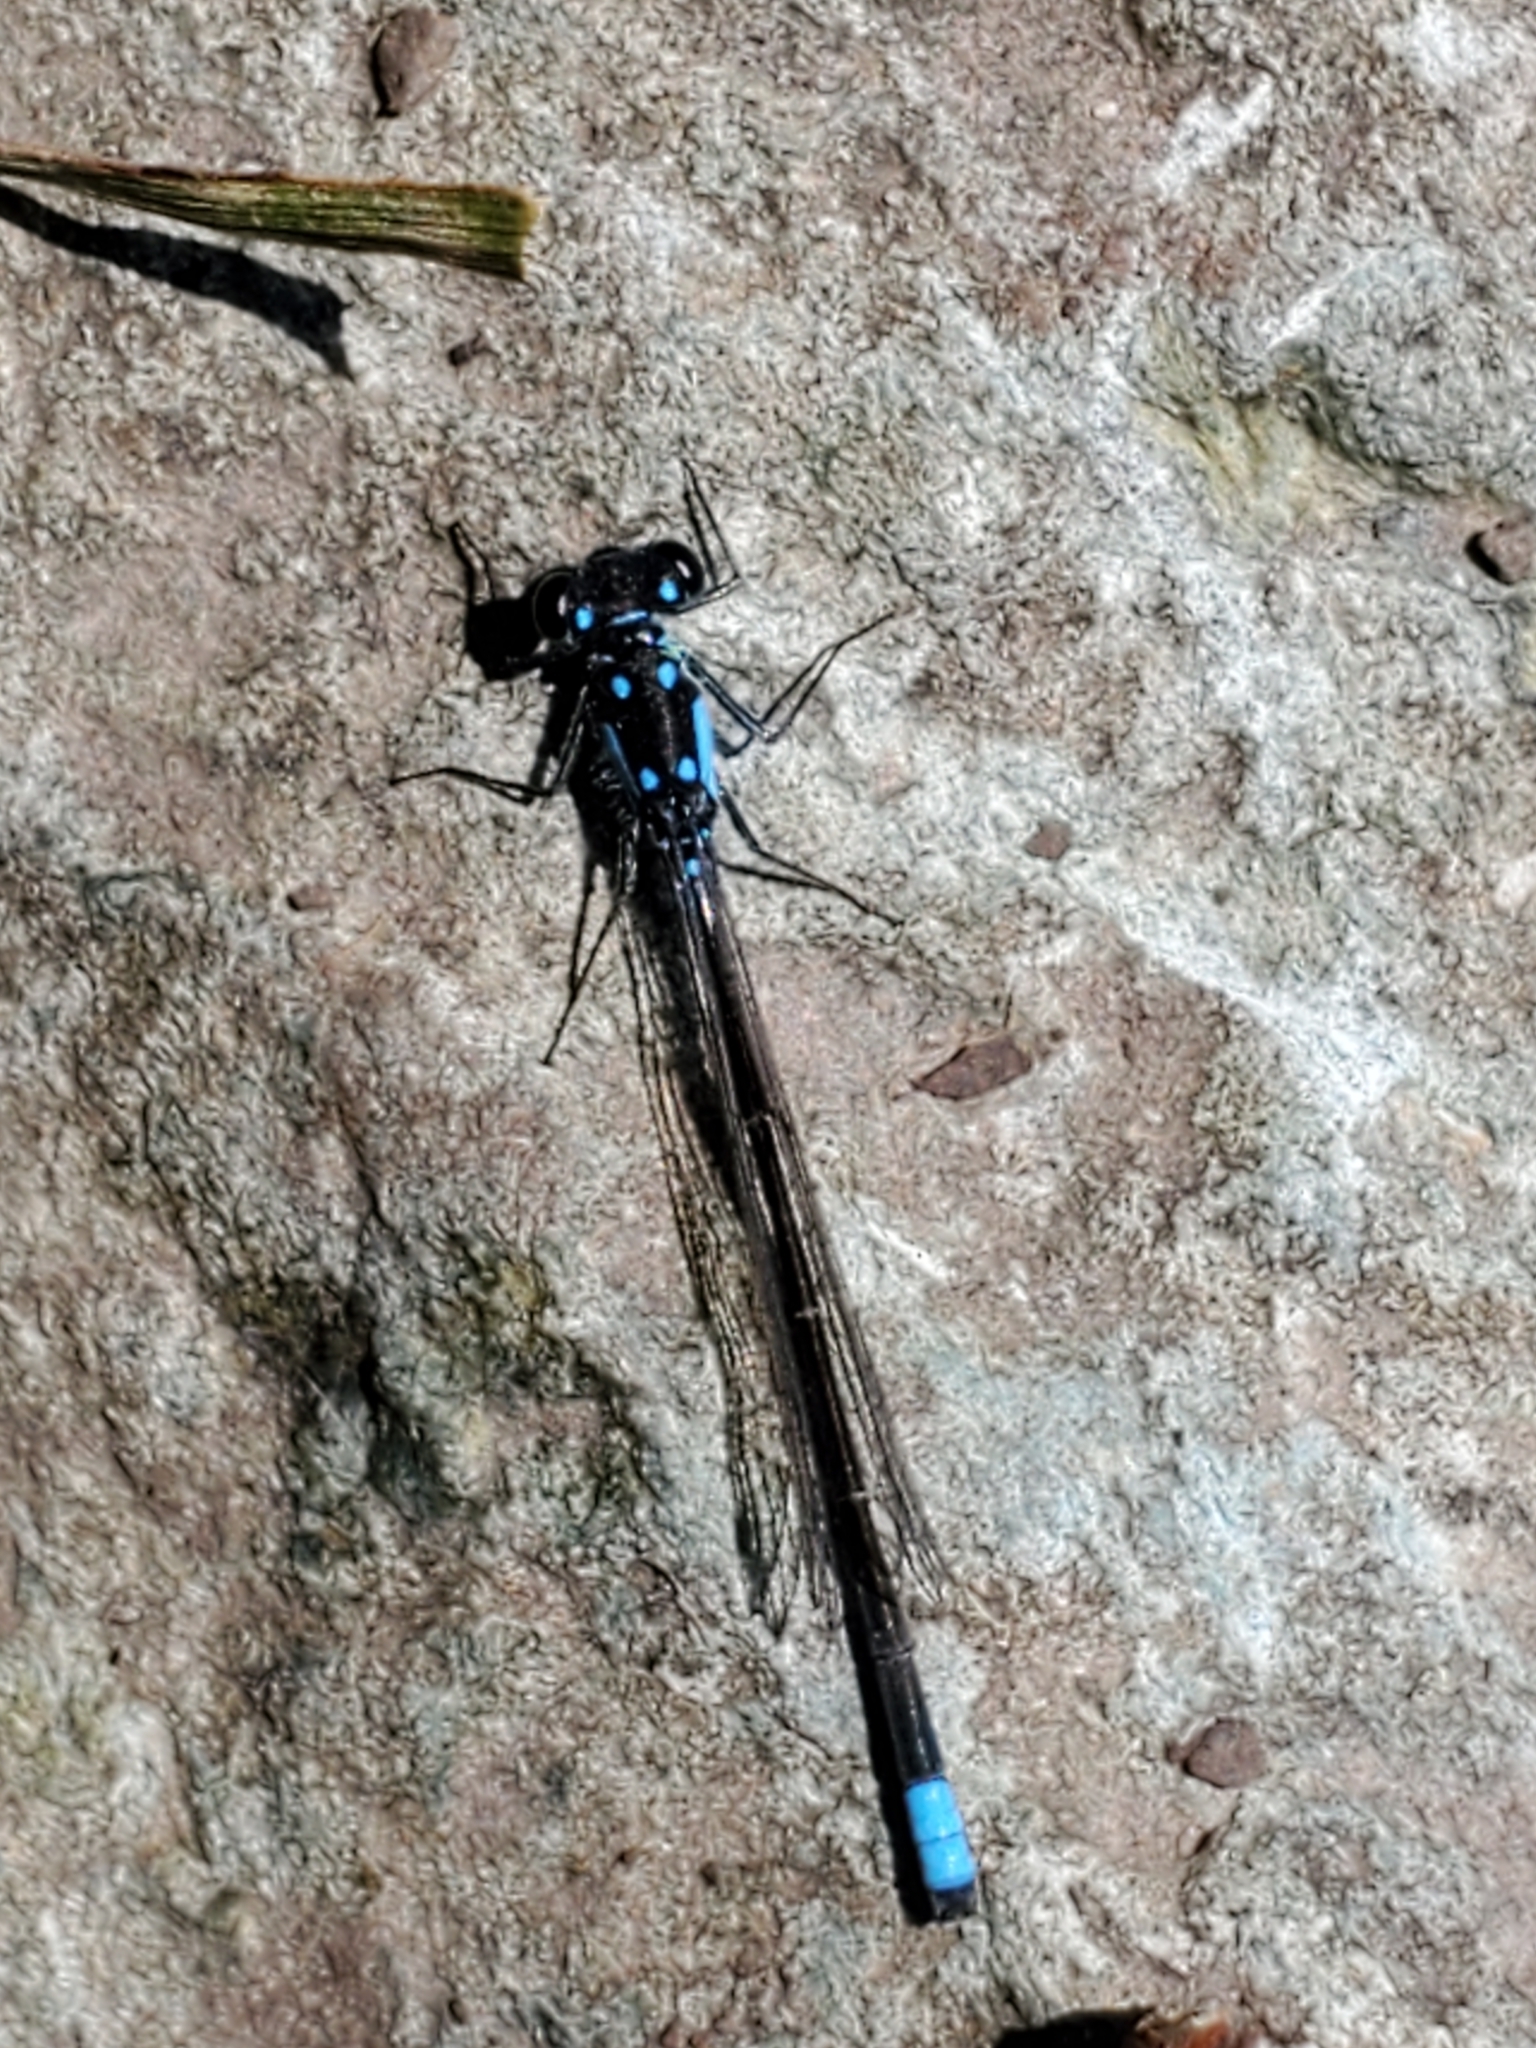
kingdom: Animalia
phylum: Arthropoda
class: Insecta
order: Odonata
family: Coenagrionidae
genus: Ischnura
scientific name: Ischnura cervula
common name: Pacific forktail
